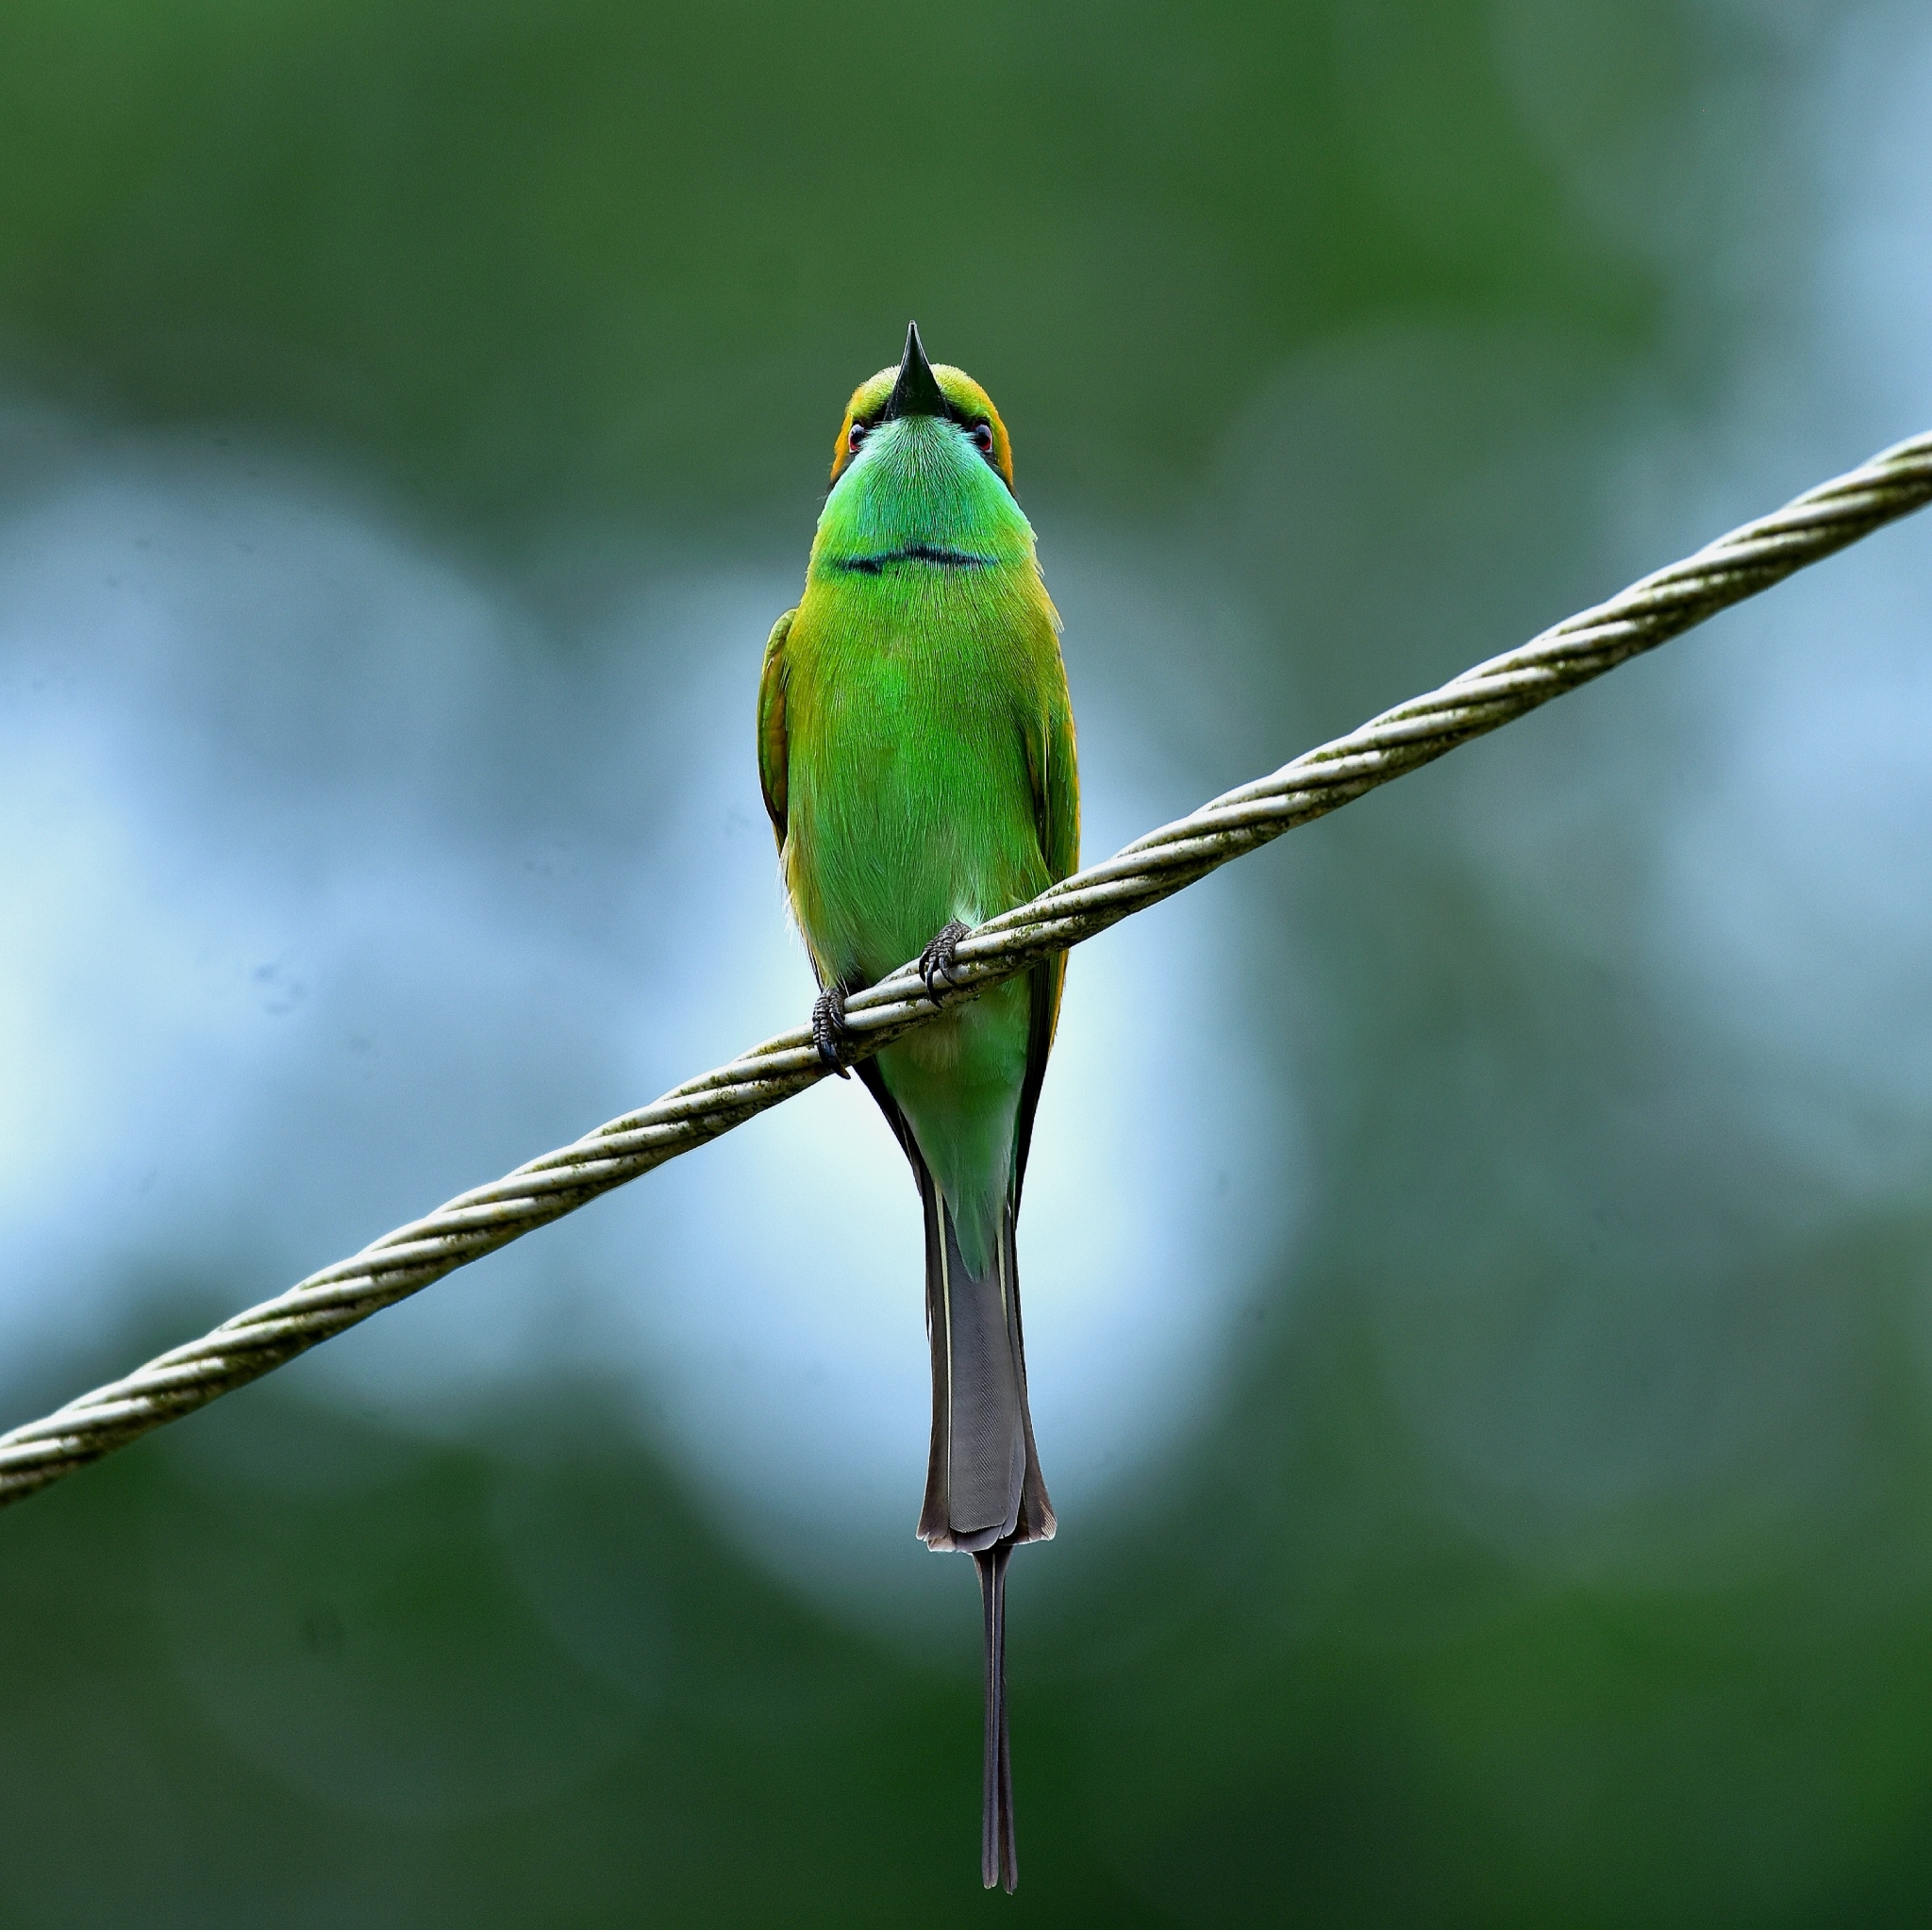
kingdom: Animalia
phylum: Chordata
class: Aves
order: Coraciiformes
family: Meropidae
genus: Merops
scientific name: Merops orientalis
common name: Green bee-eater
